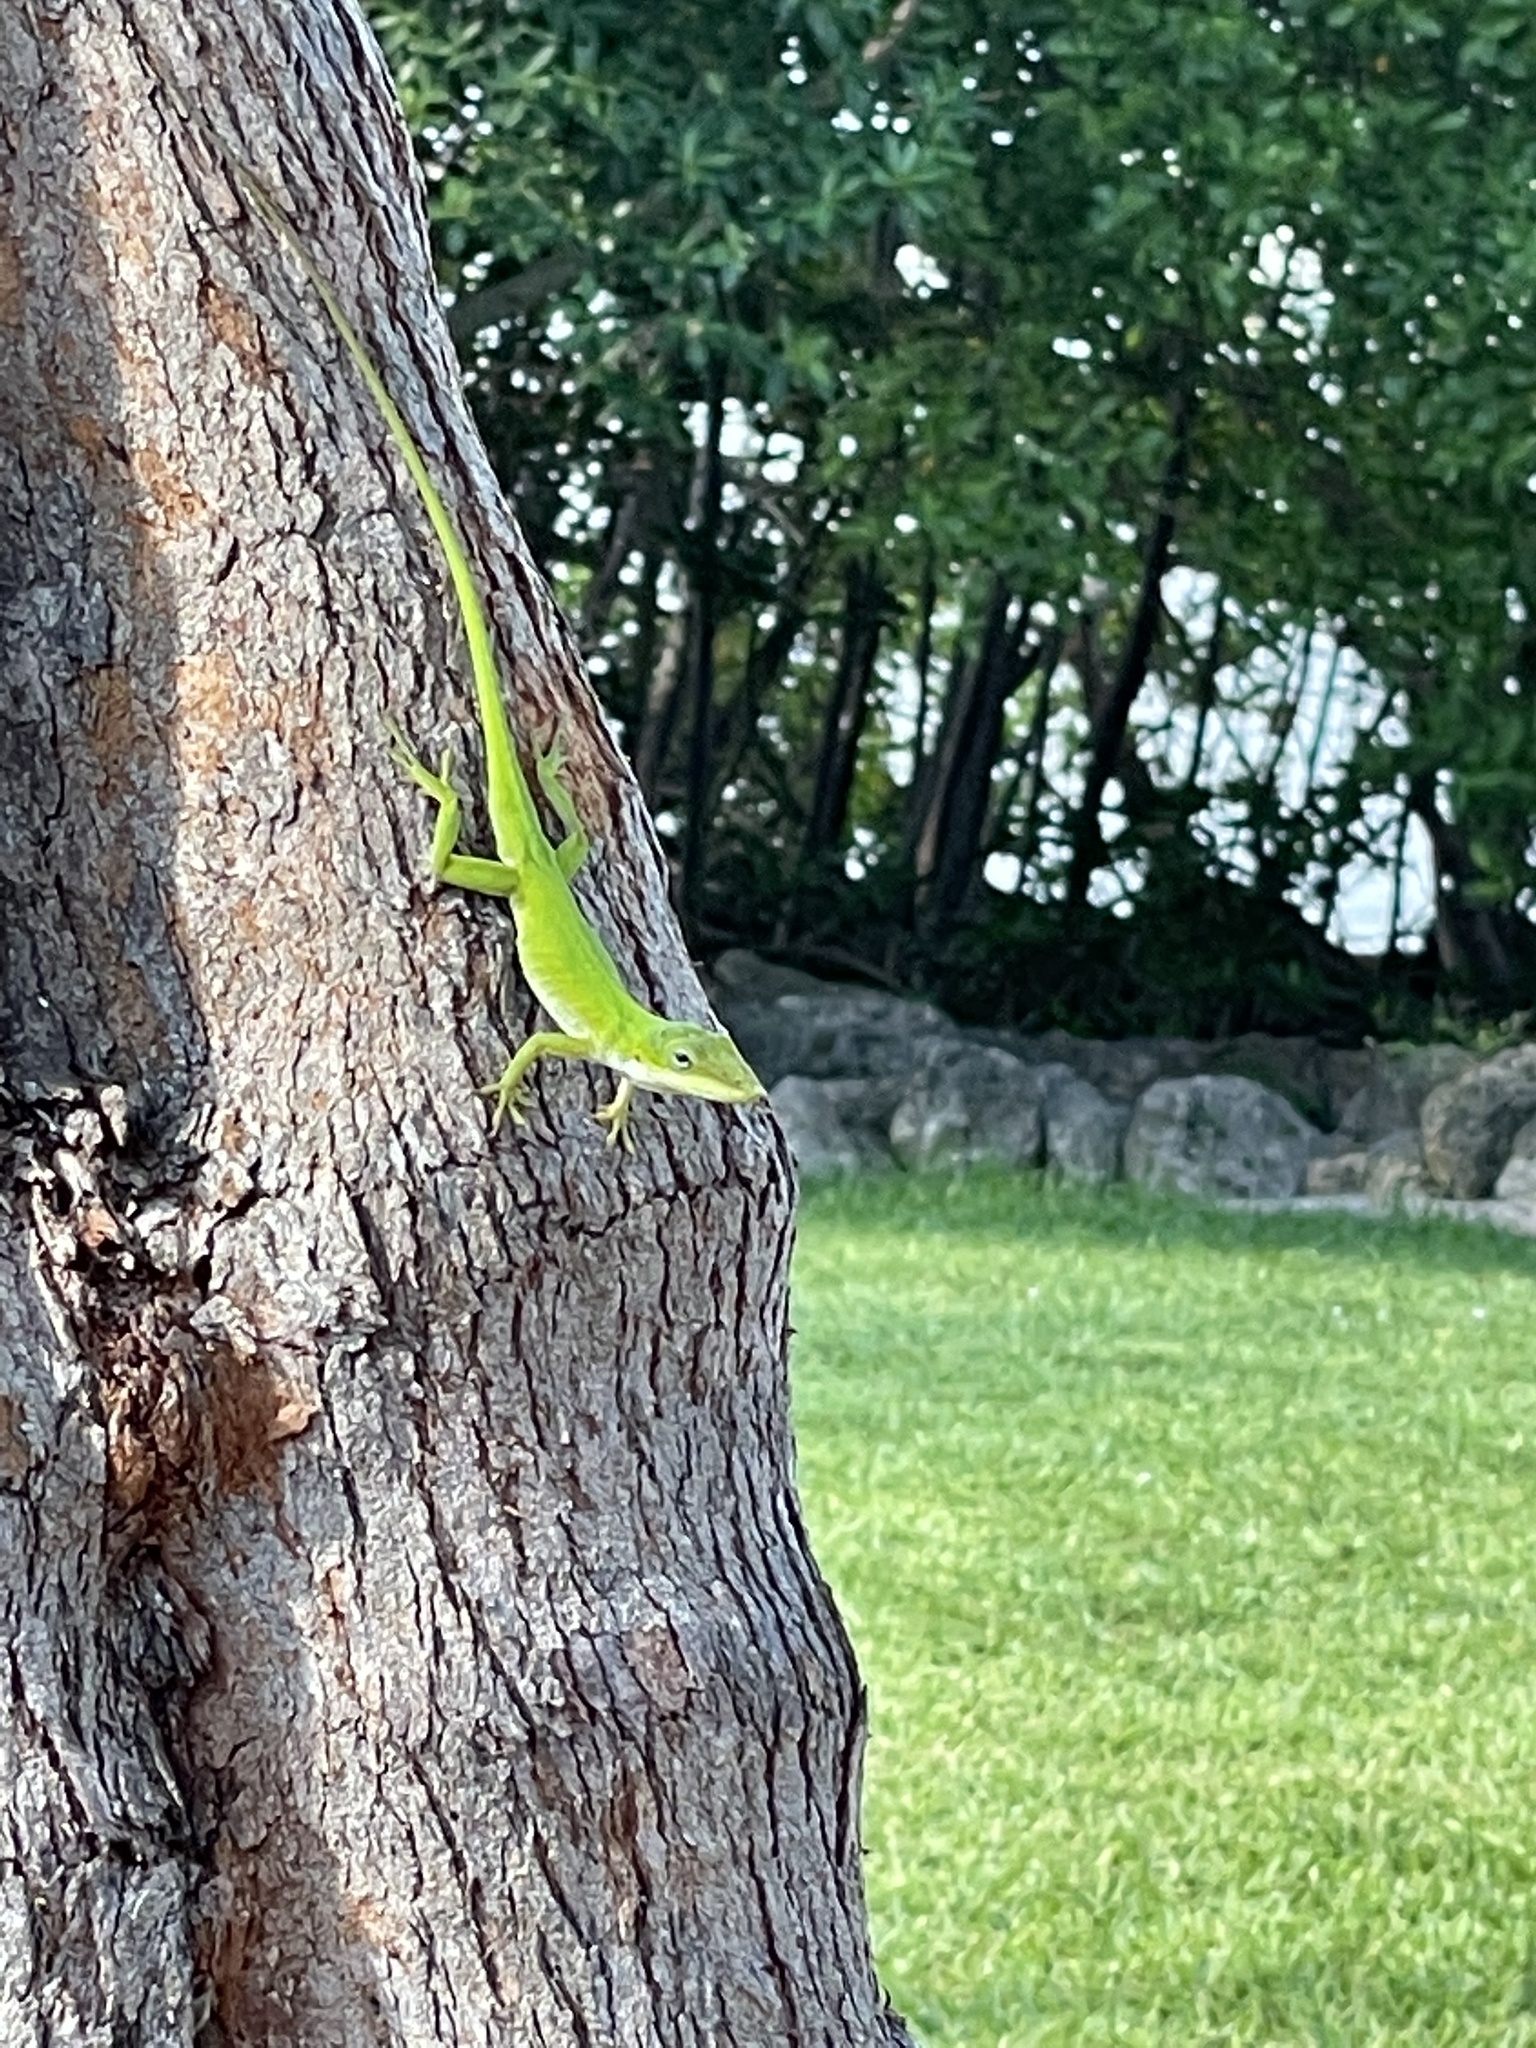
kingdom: Animalia
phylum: Chordata
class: Squamata
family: Dactyloidae
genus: Anolis
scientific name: Anolis carolinensis
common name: Green anole
